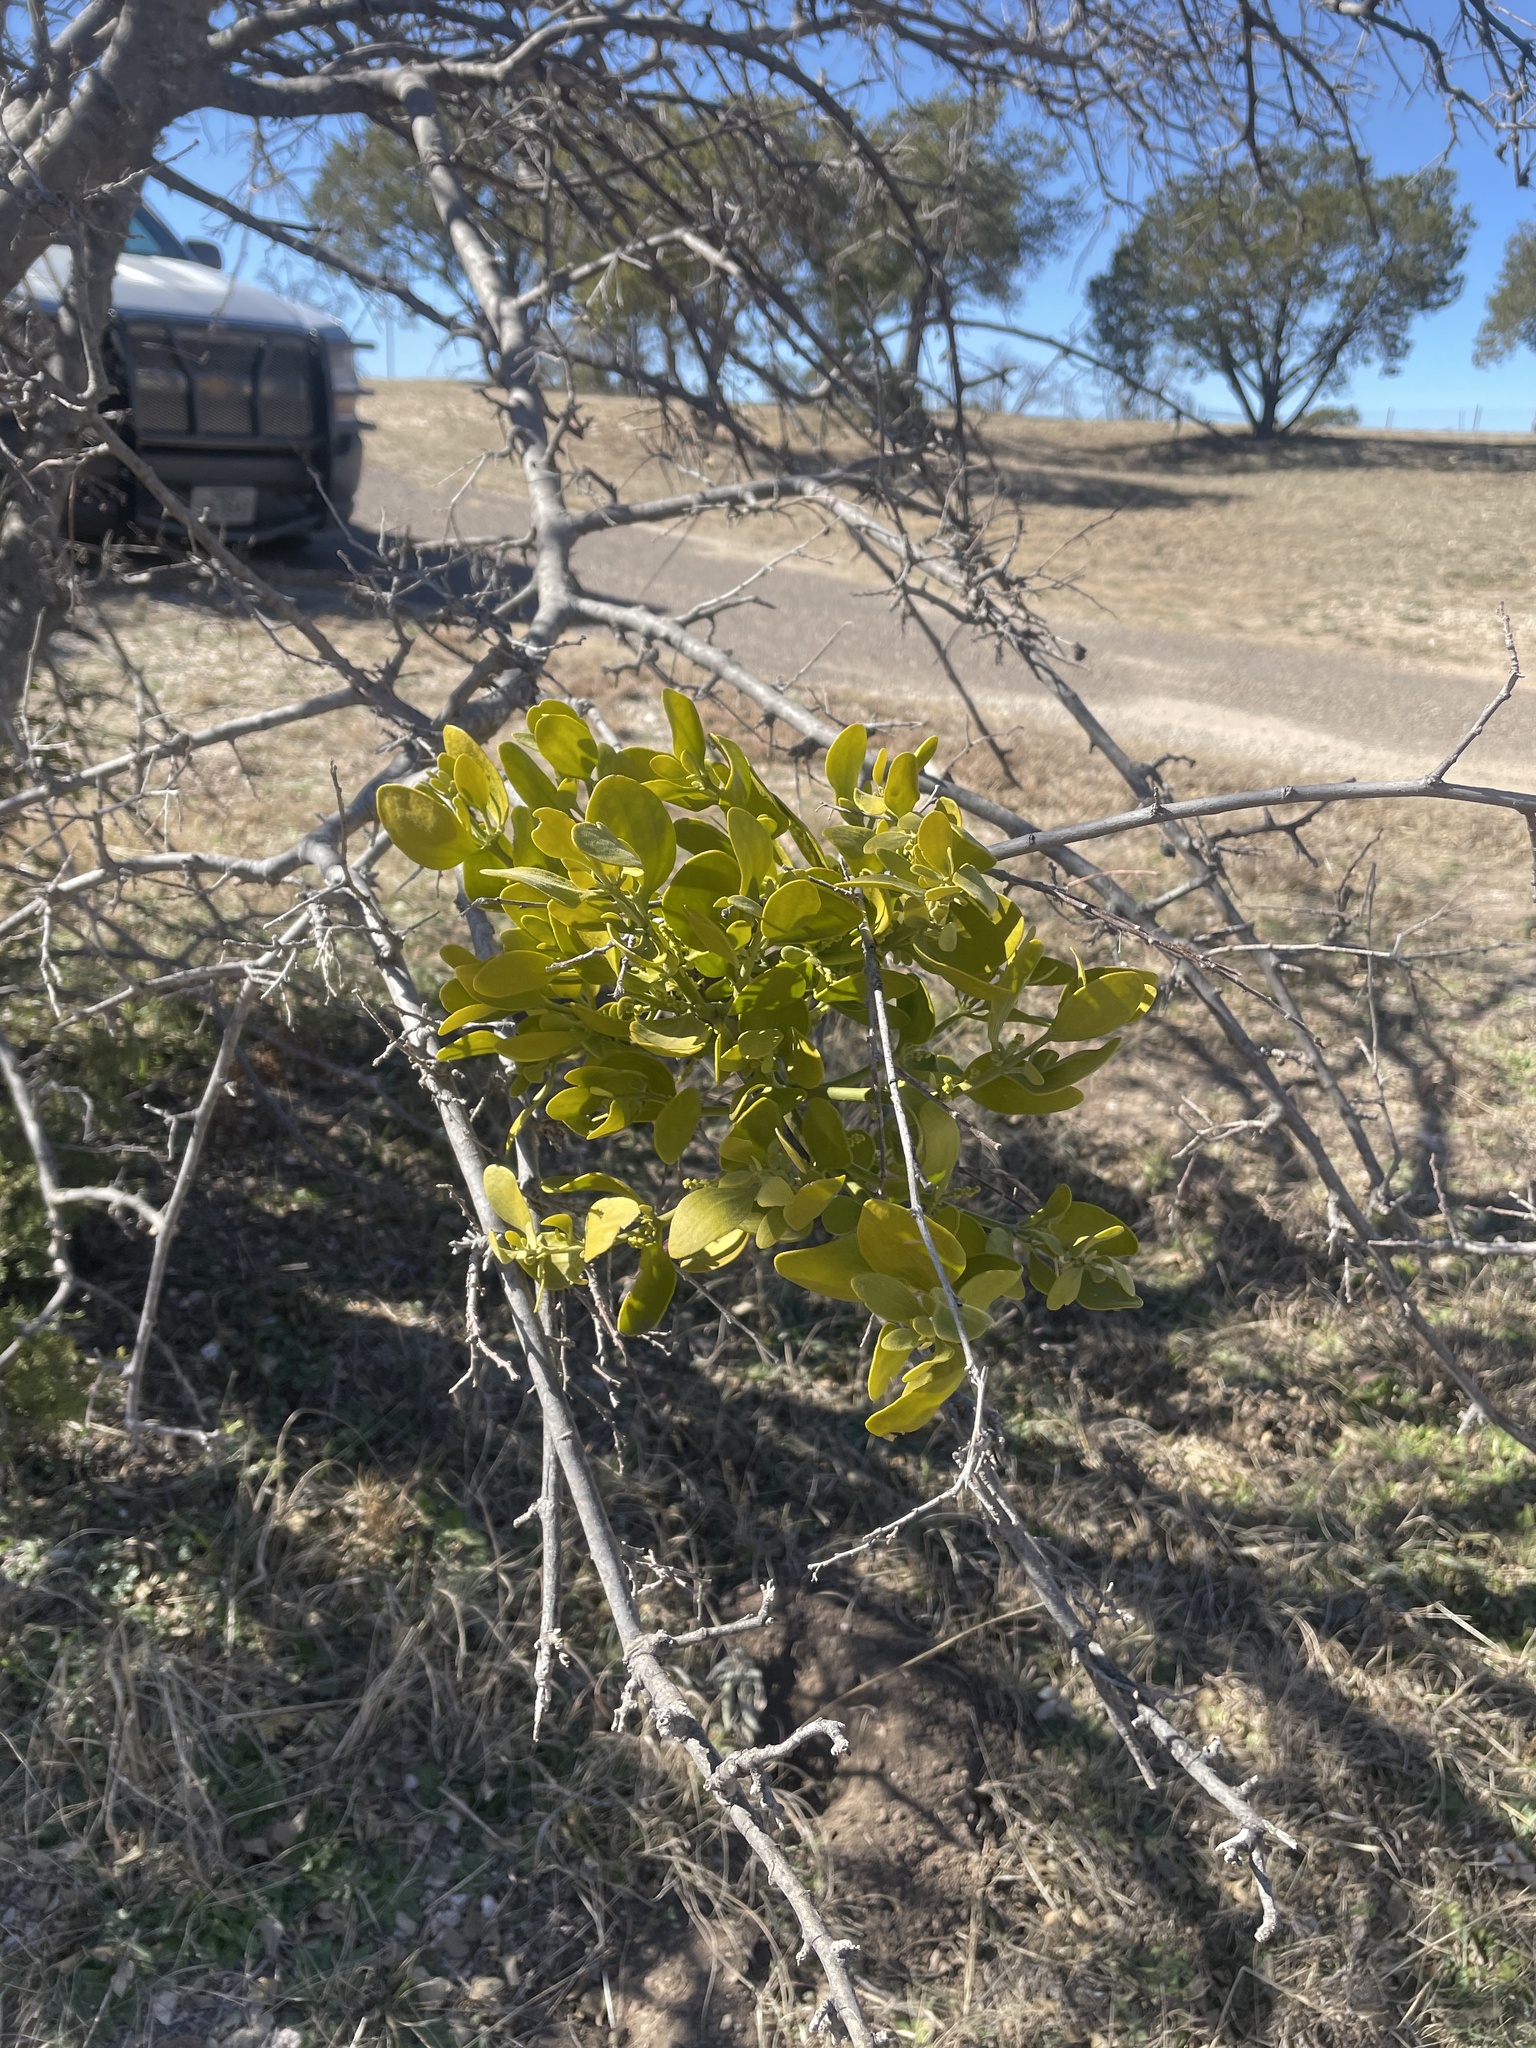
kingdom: Plantae
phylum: Tracheophyta
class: Magnoliopsida
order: Santalales
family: Viscaceae
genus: Phoradendron
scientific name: Phoradendron leucarpum
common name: Pacific mistletoe
